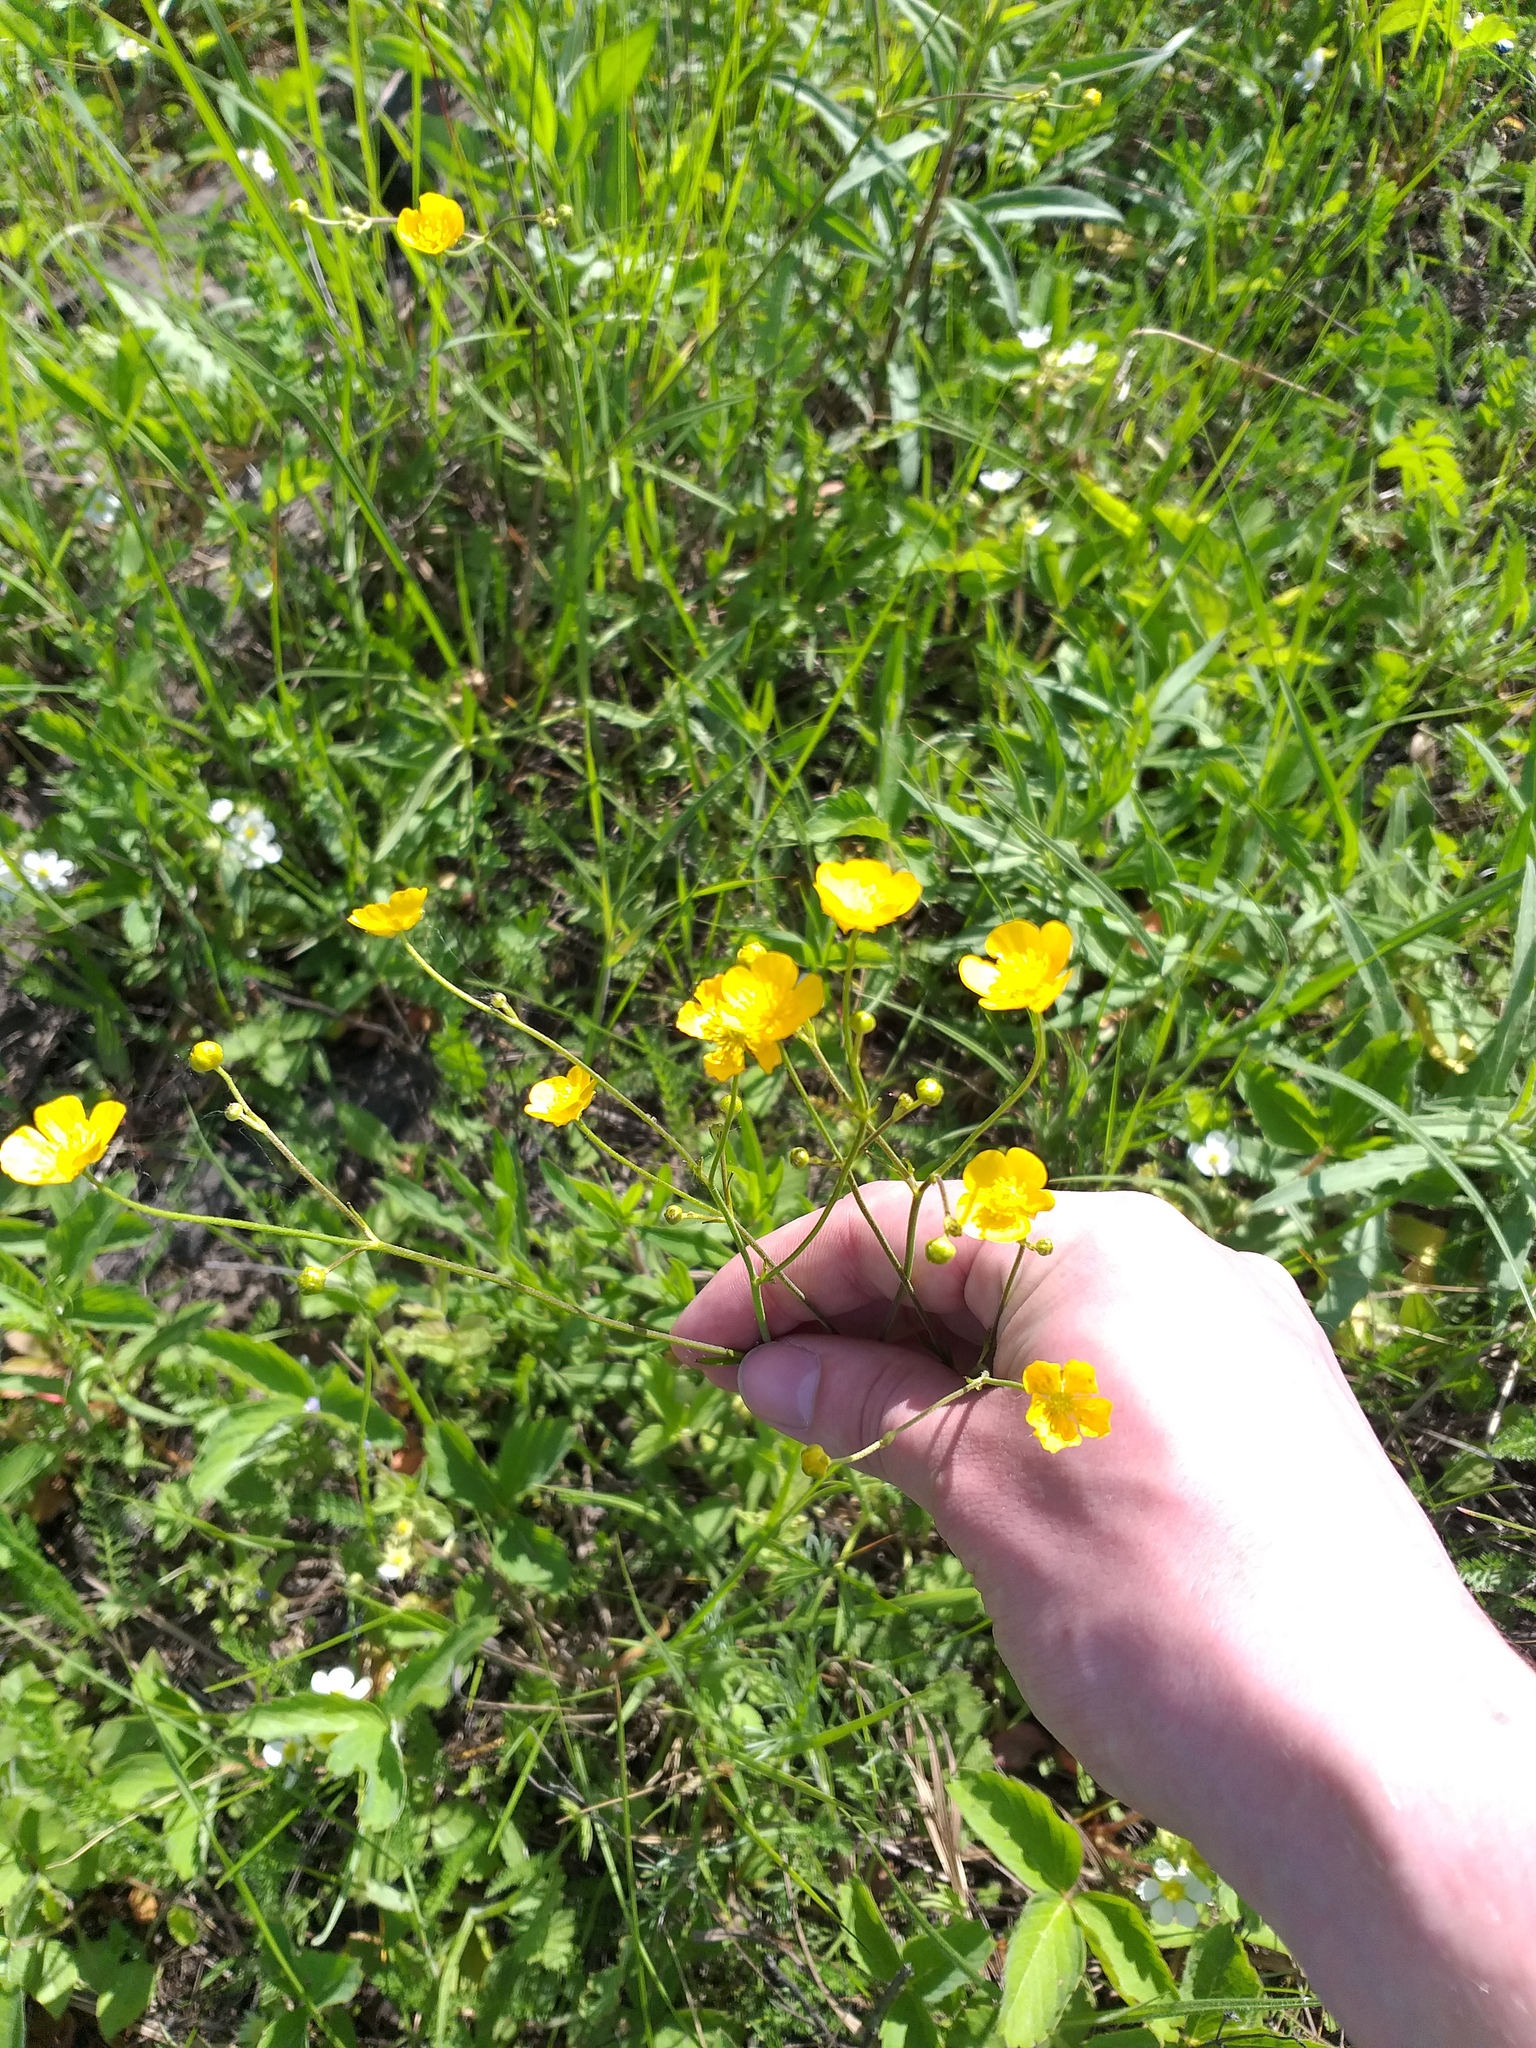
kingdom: Plantae
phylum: Tracheophyta
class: Magnoliopsida
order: Ranunculales
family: Ranunculaceae
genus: Ranunculus
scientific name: Ranunculus acris
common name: Meadow buttercup
